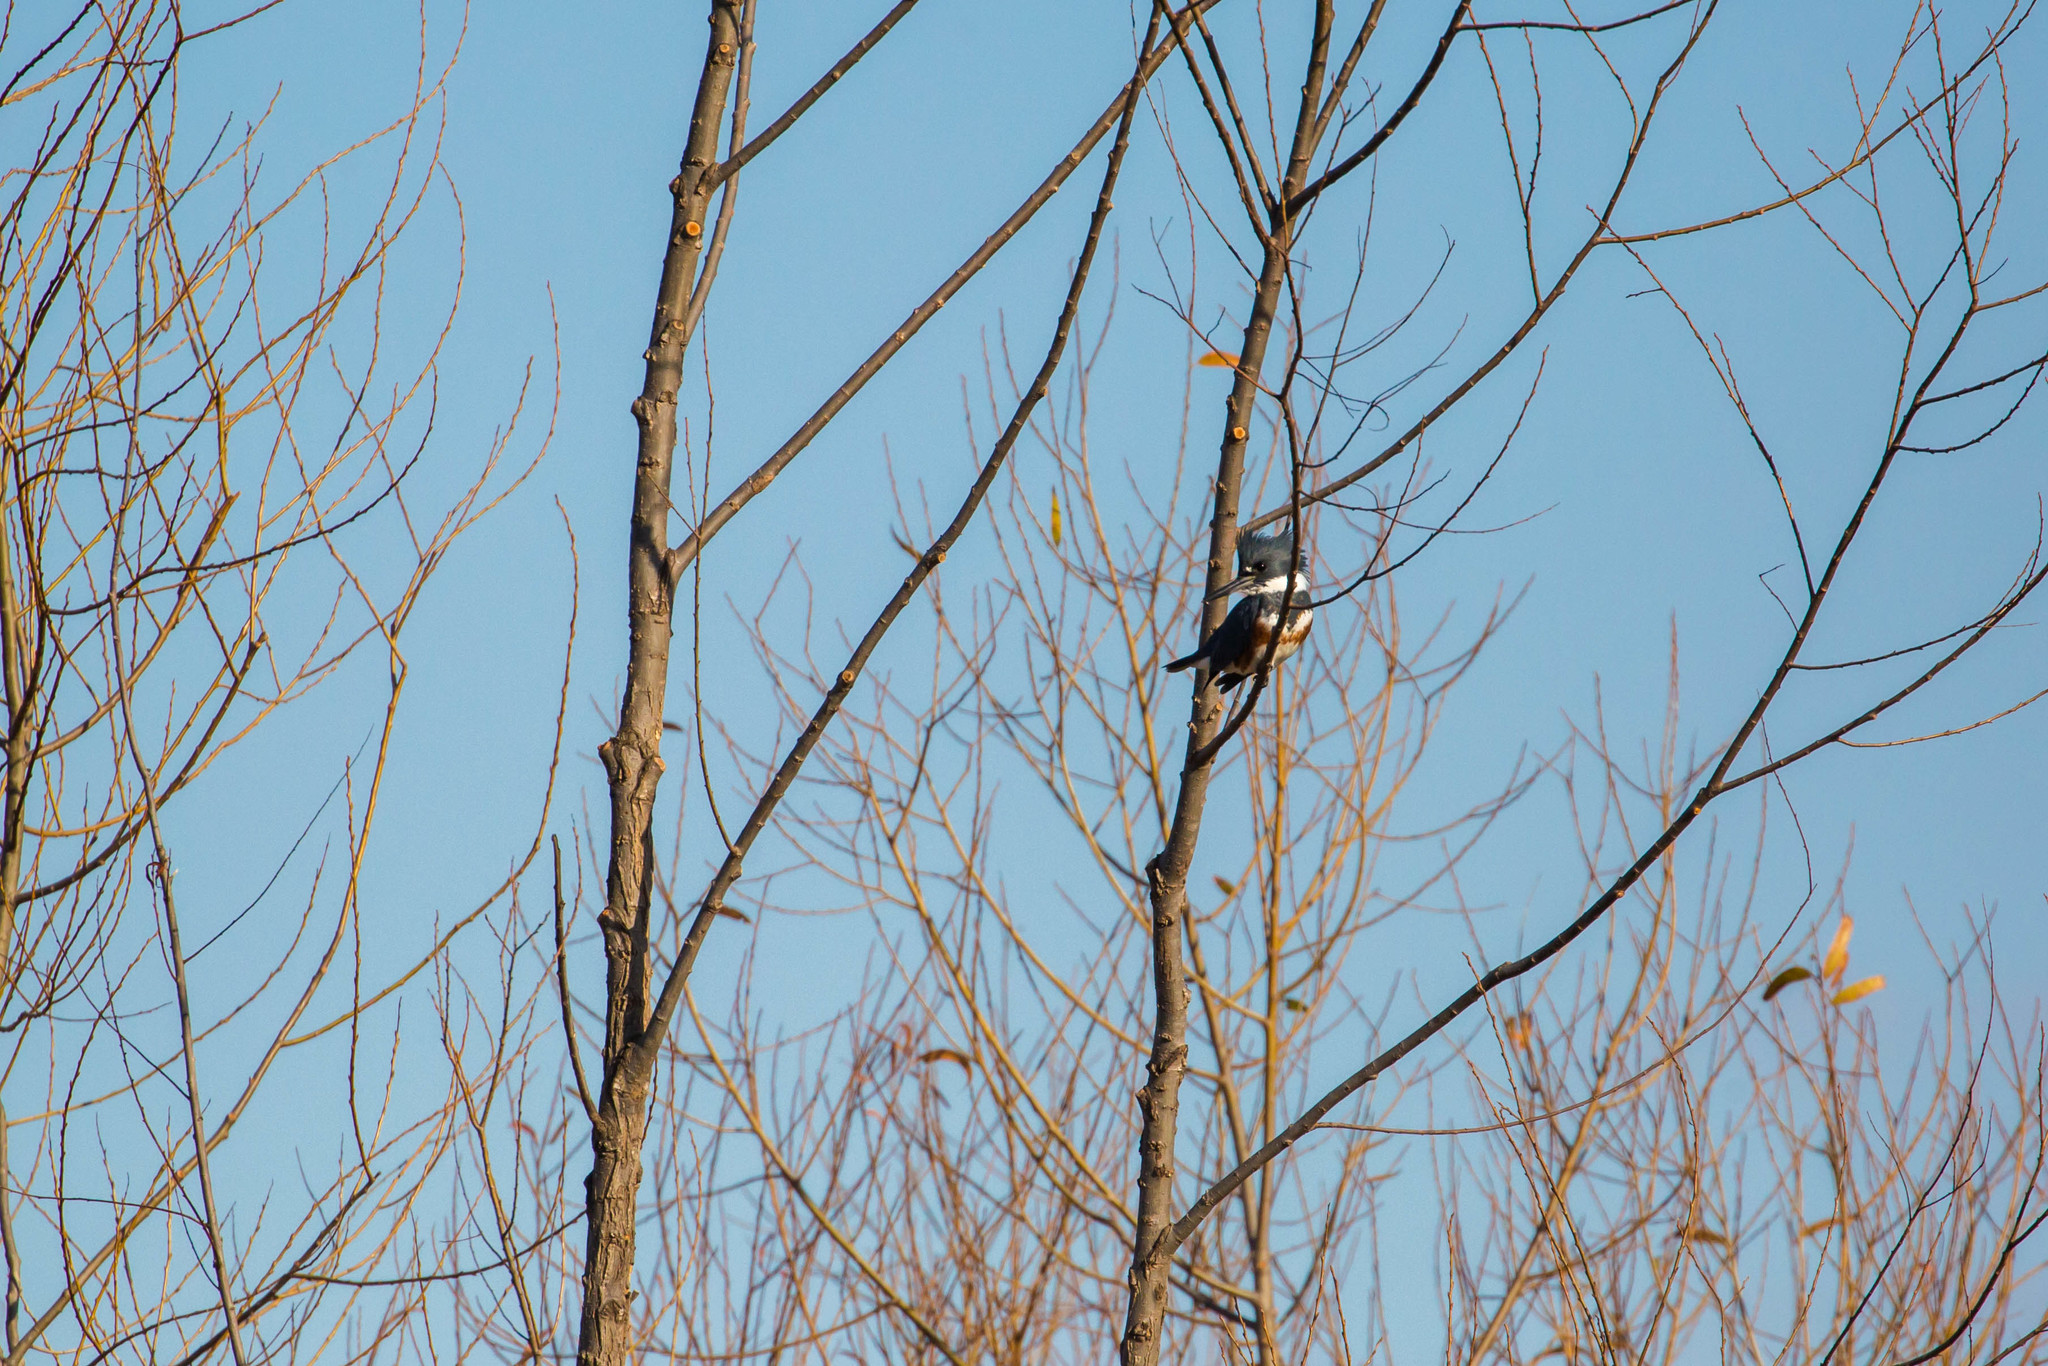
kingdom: Animalia
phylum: Chordata
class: Aves
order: Coraciiformes
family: Alcedinidae
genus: Megaceryle
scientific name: Megaceryle alcyon
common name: Belted kingfisher
